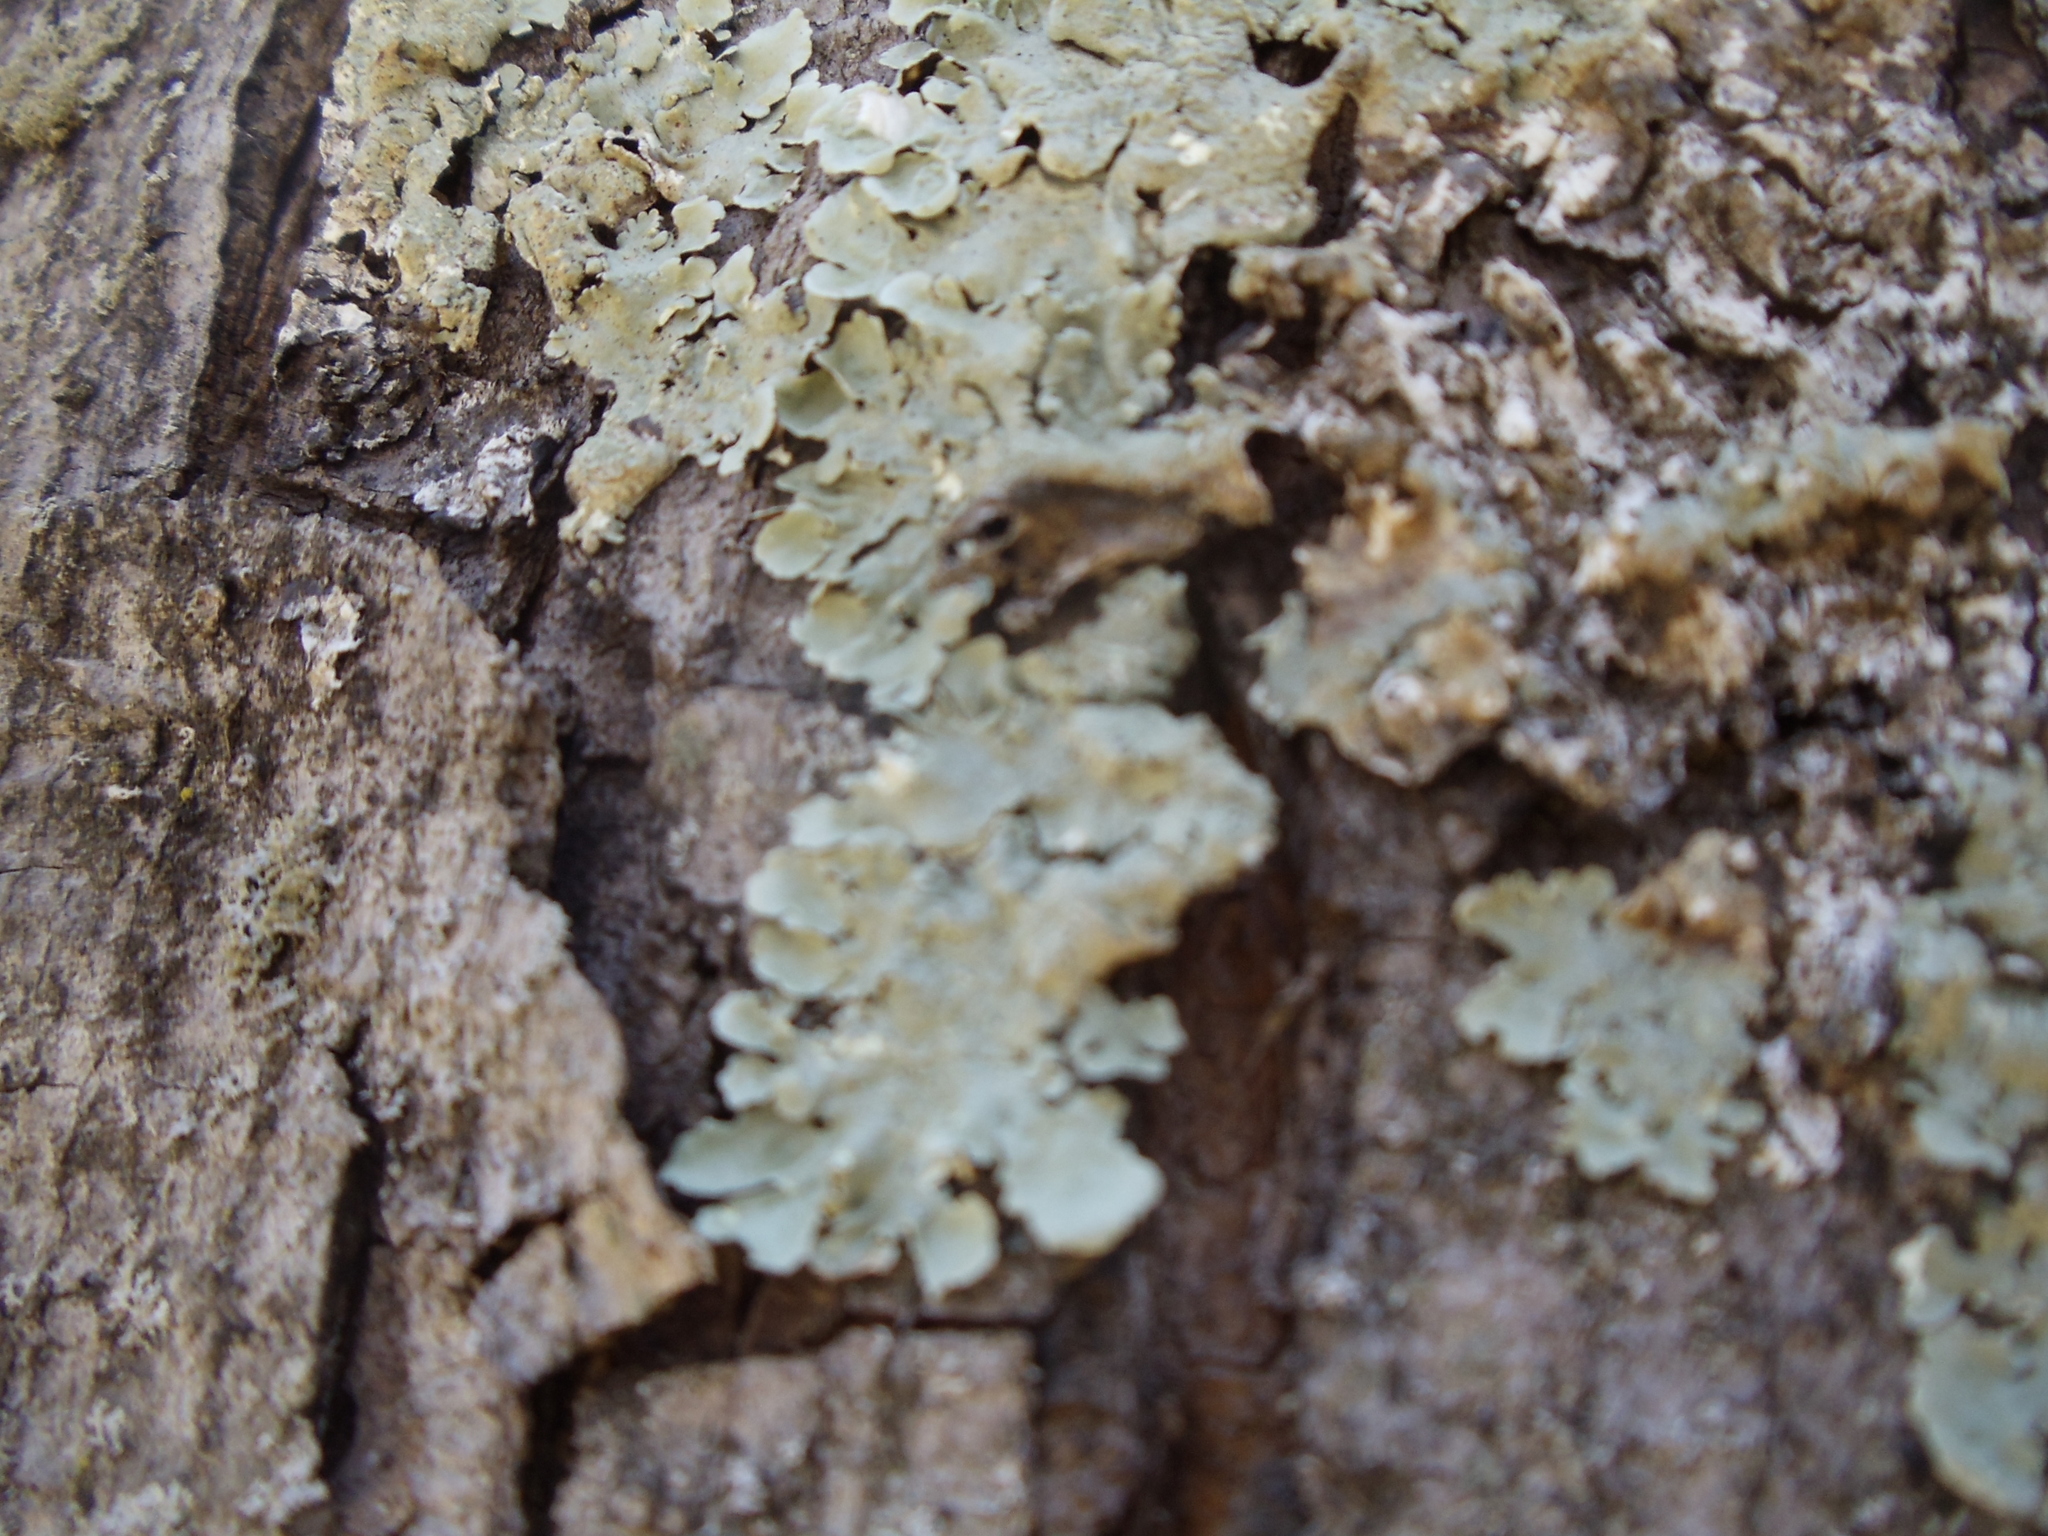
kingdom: Fungi
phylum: Ascomycota
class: Lecanoromycetes
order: Lecanorales
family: Parmeliaceae
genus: Flavoparmelia
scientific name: Flavoparmelia caperata
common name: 40-mile per hour lichen
